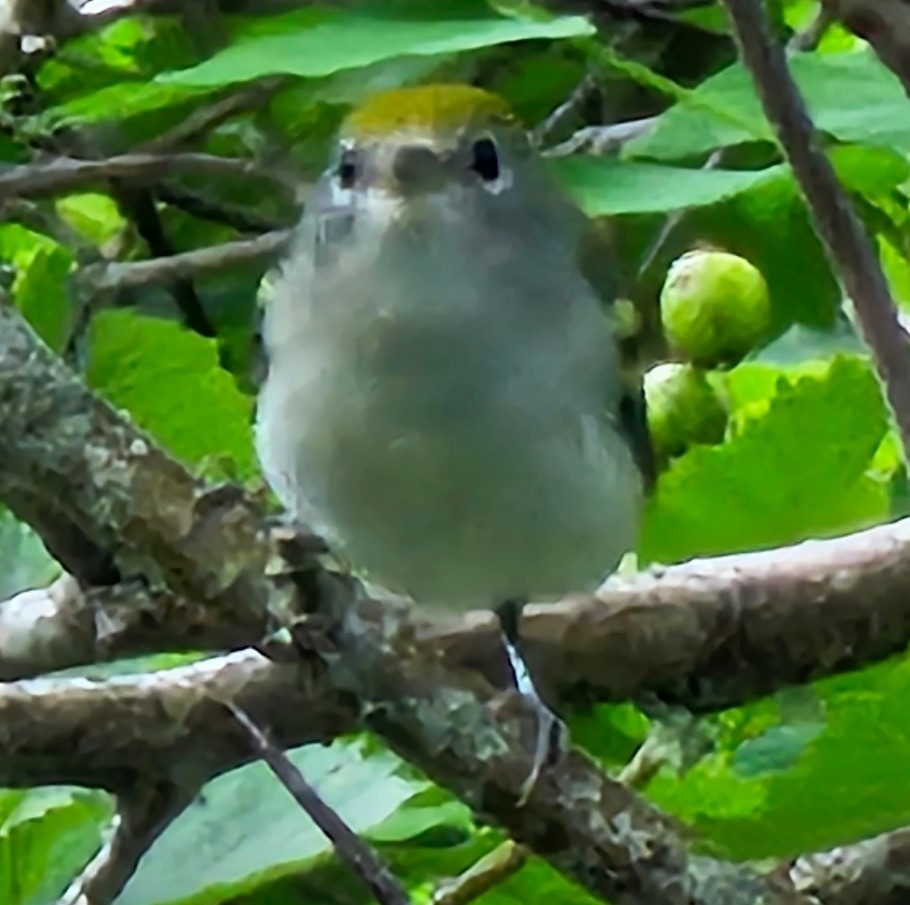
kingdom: Animalia
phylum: Chordata
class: Aves
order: Passeriformes
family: Parulidae
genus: Setophaga
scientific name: Setophaga pensylvanica
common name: Chestnut-sided warbler
